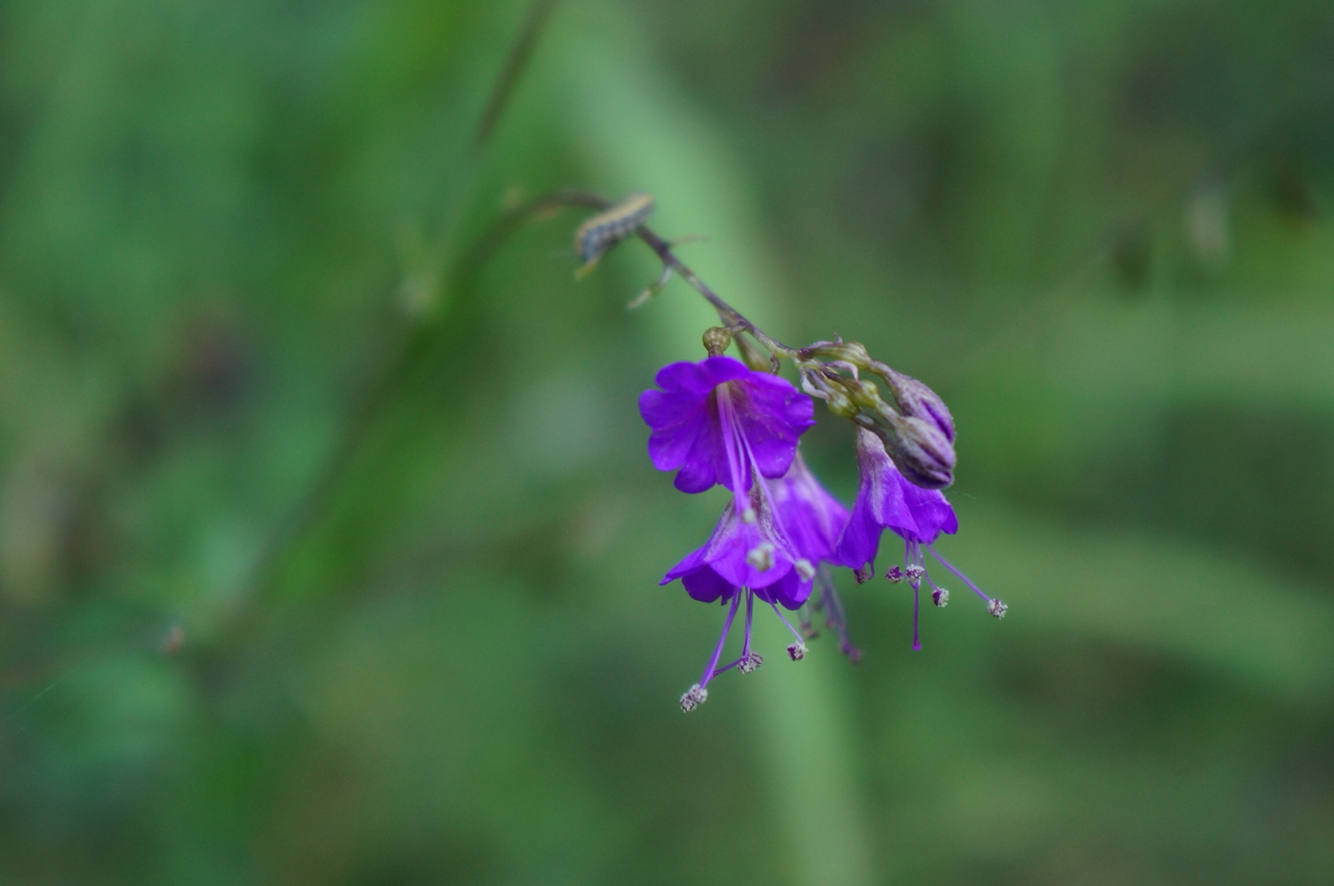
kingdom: Plantae
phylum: Tracheophyta
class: Magnoliopsida
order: Caryophyllales
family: Nyctaginaceae
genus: Cyphomeris
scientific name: Cyphomeris crassifolia
